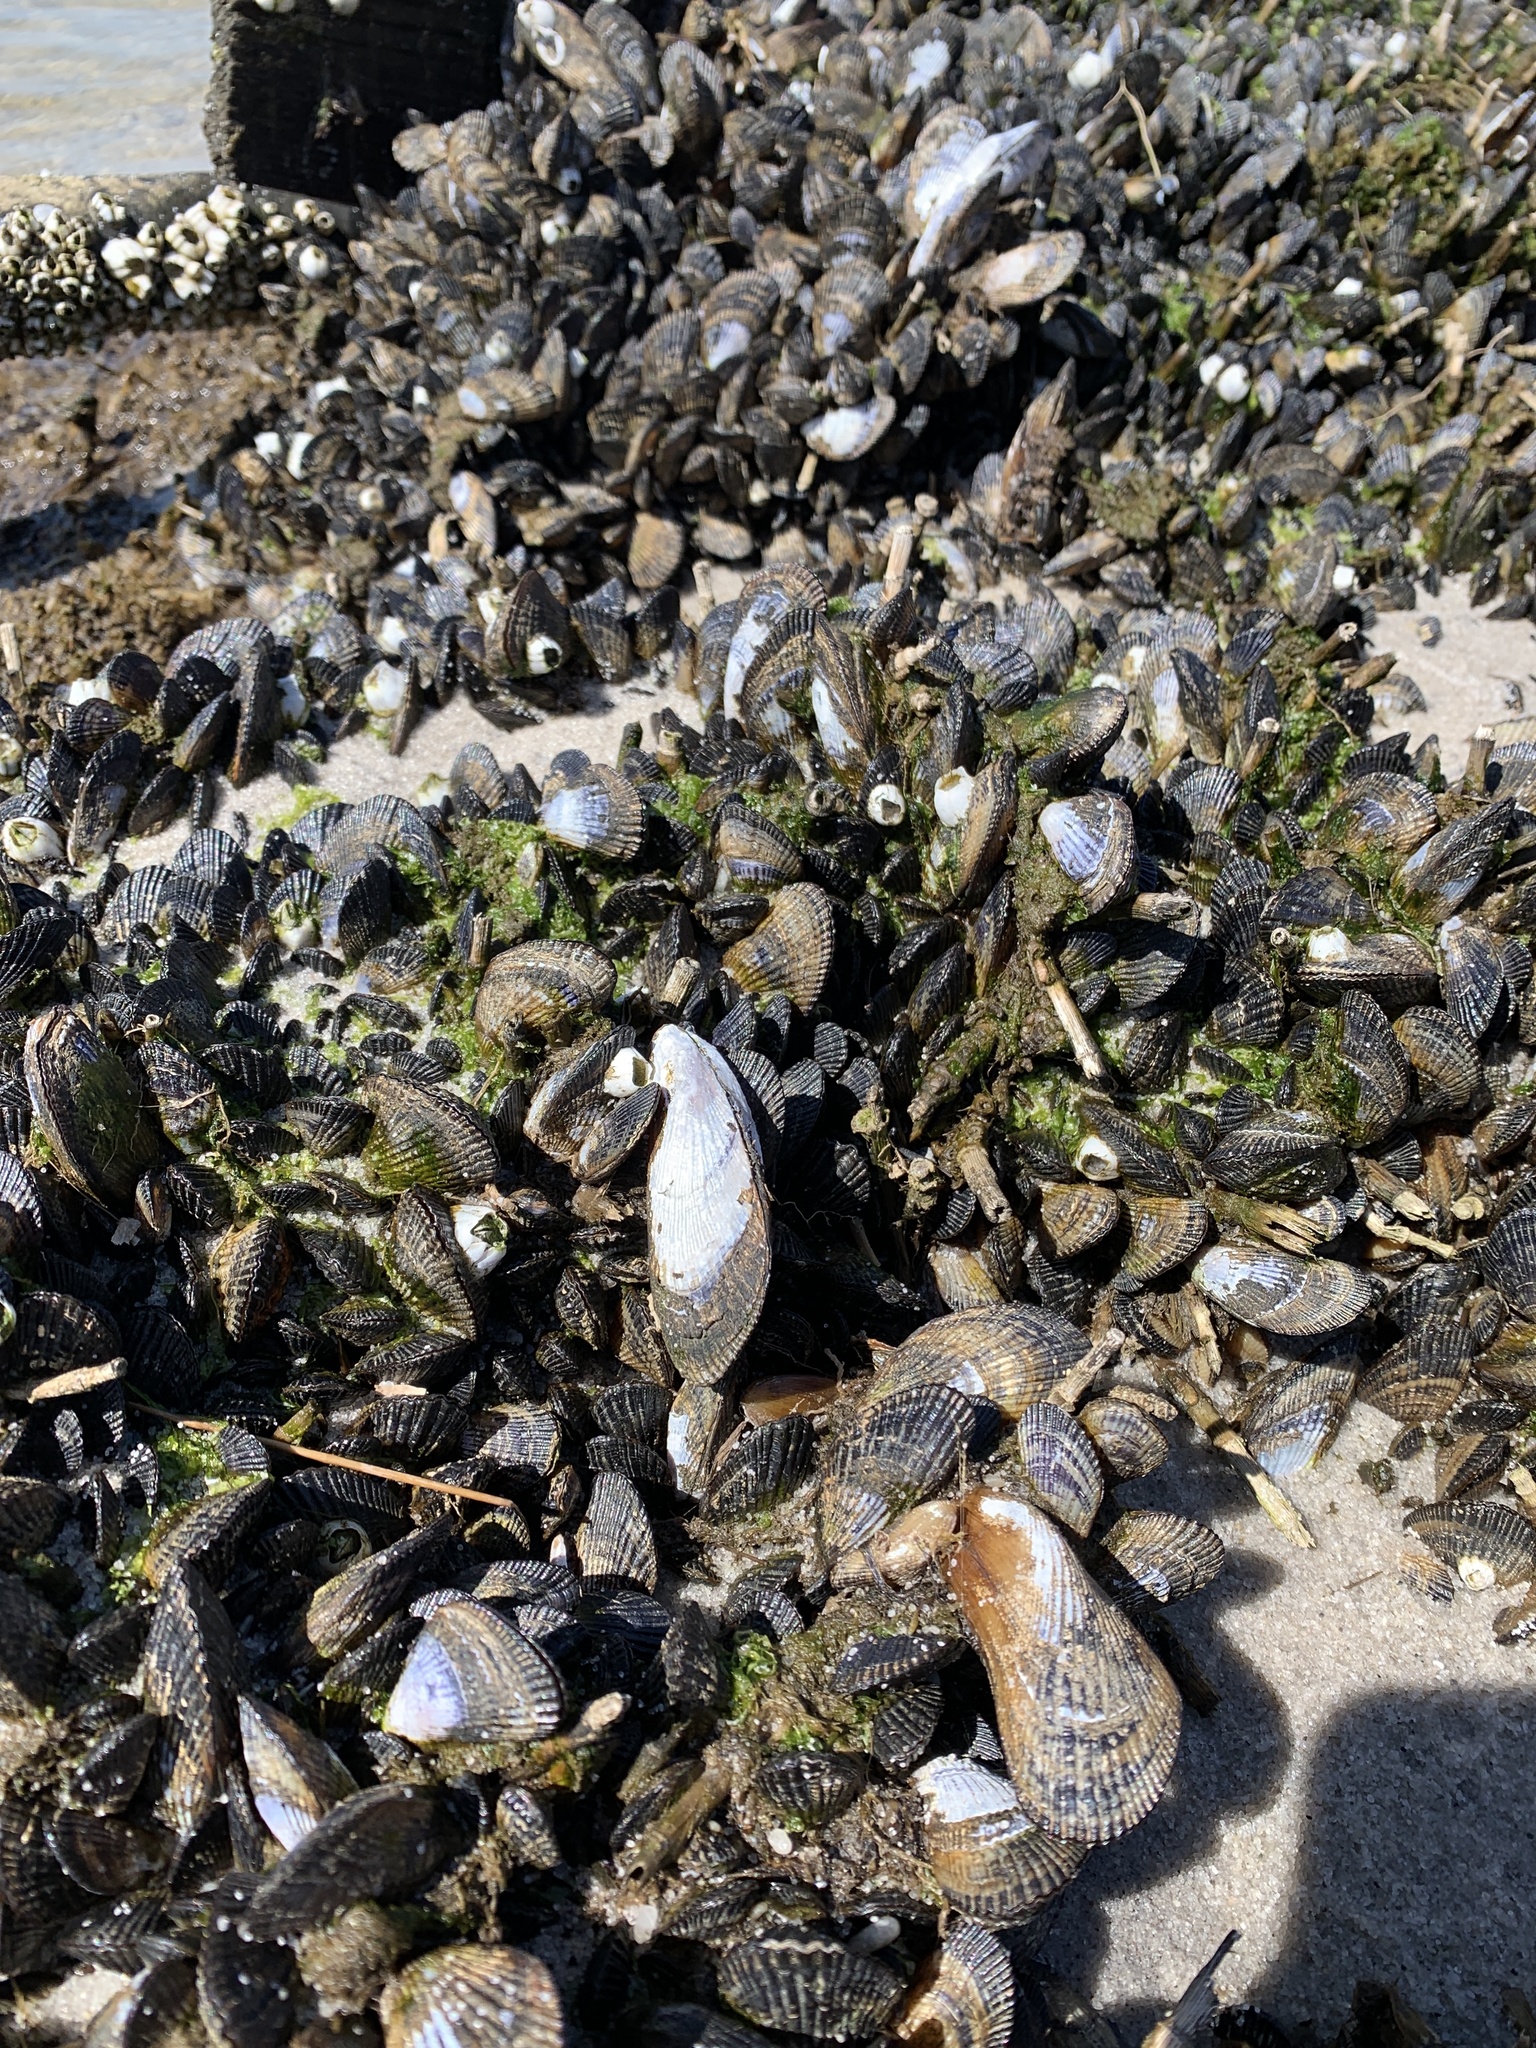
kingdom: Animalia
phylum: Mollusca
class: Bivalvia
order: Mytilida
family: Mytilidae
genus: Geukensia
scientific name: Geukensia demissa
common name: Ribbed mussel
